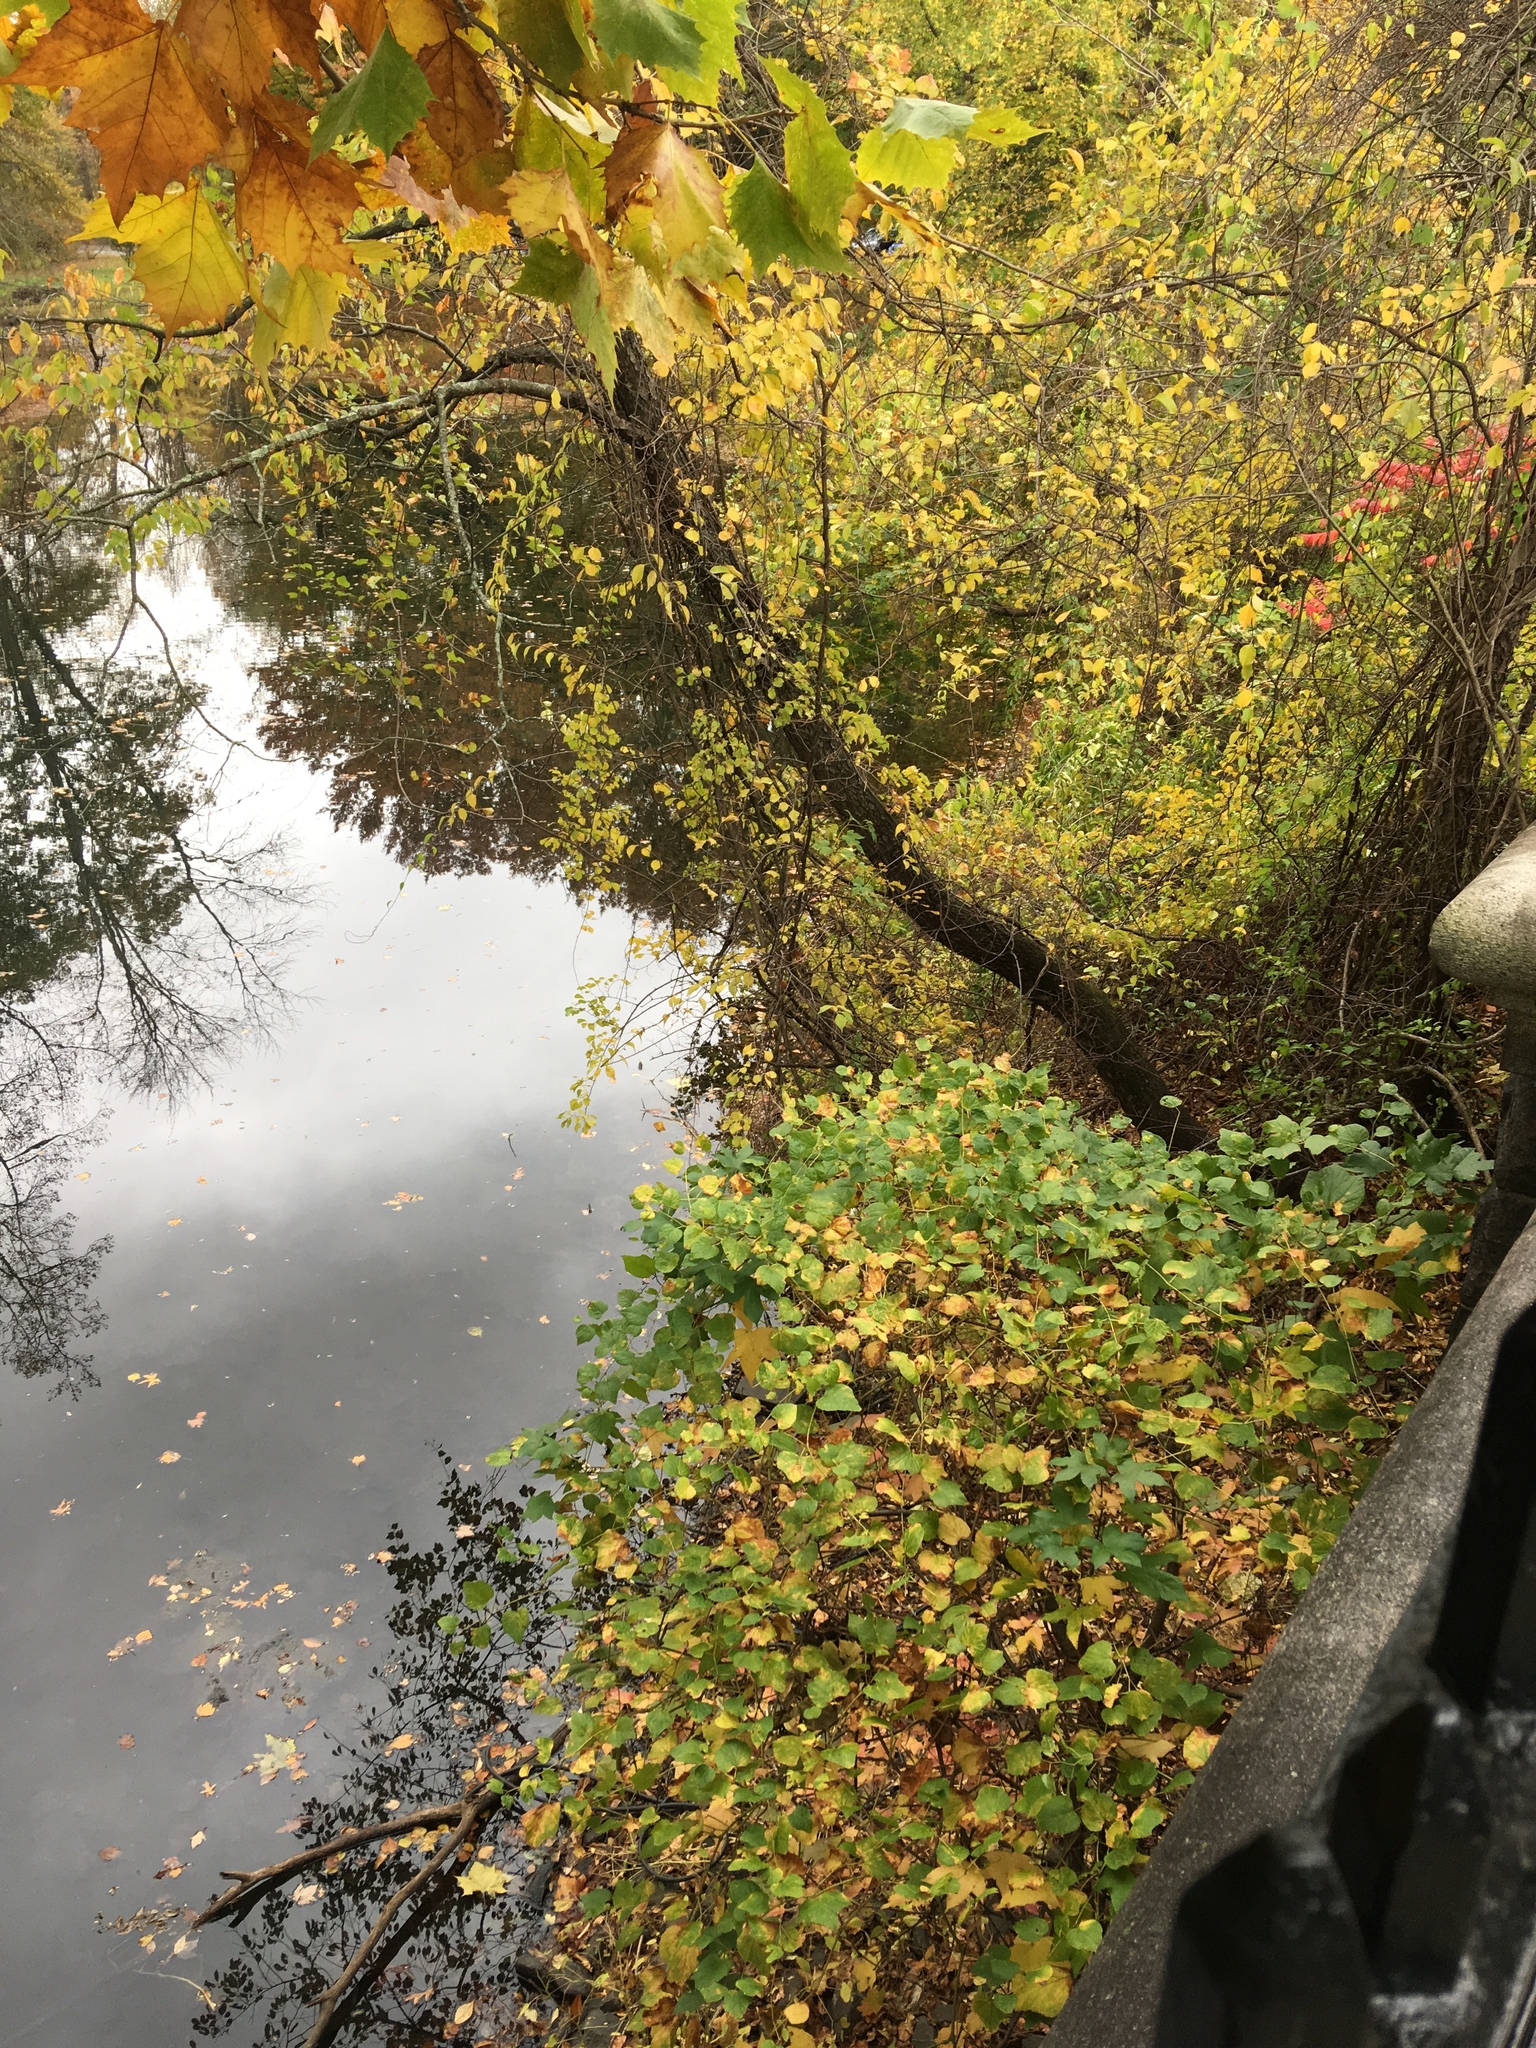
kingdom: Plantae
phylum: Tracheophyta
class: Magnoliopsida
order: Vitales
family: Vitaceae
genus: Ampelopsis
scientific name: Ampelopsis glandulosa
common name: Amur peppervine
